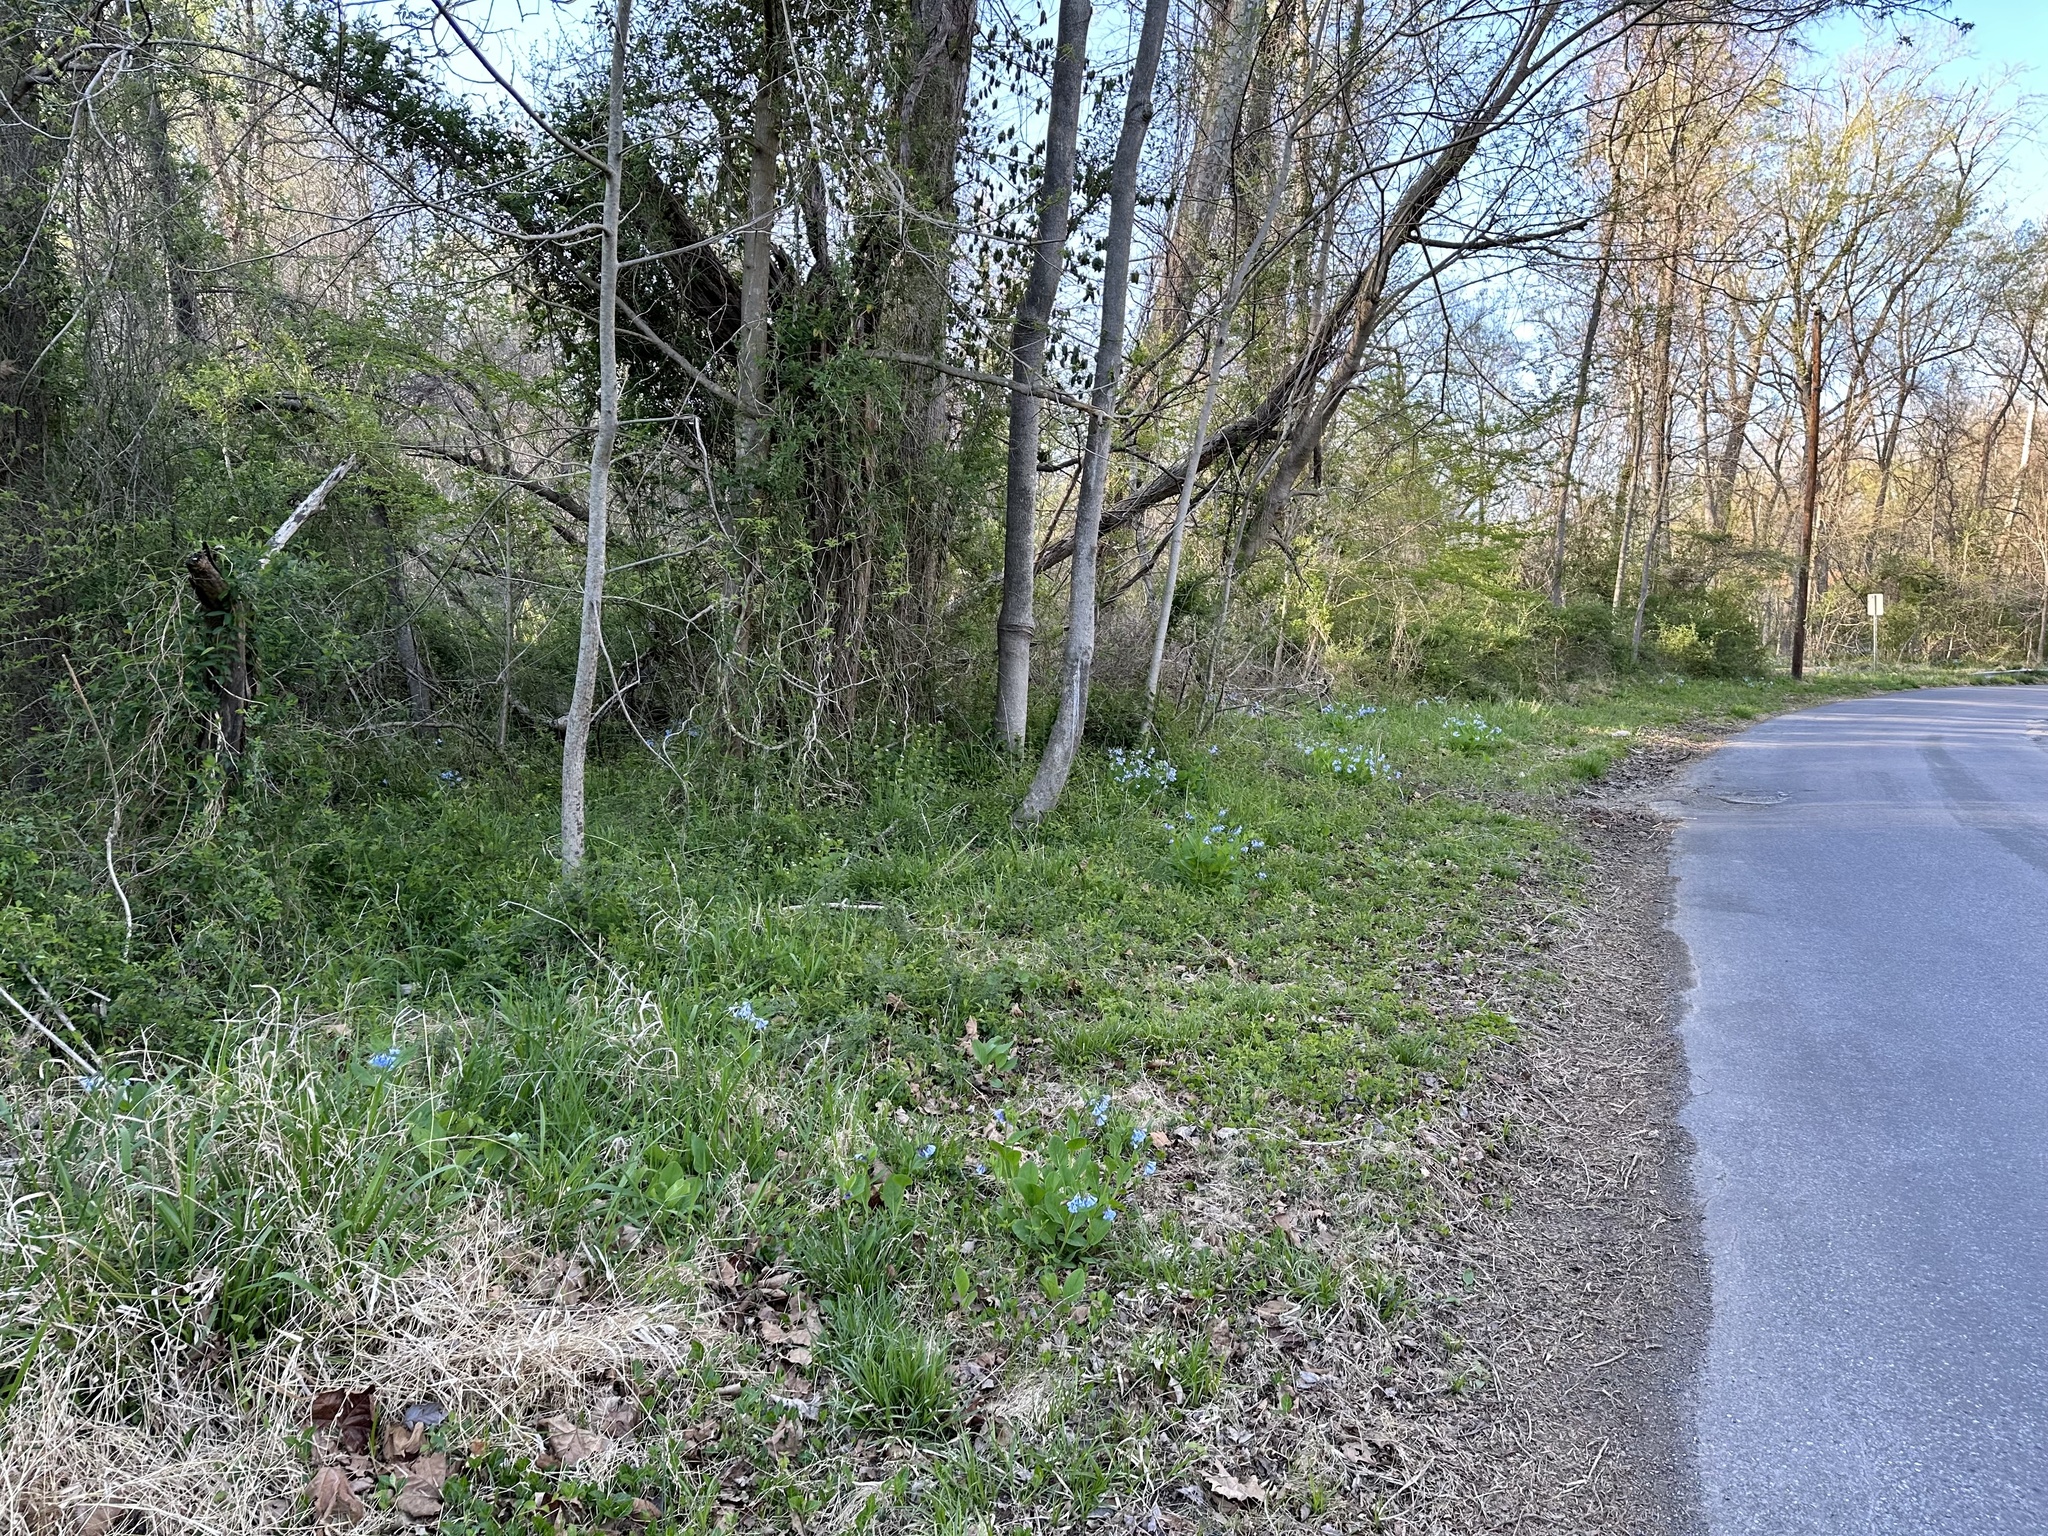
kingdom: Plantae
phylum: Tracheophyta
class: Magnoliopsida
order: Boraginales
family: Boraginaceae
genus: Mertensia
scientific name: Mertensia virginica
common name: Virginia bluebells
